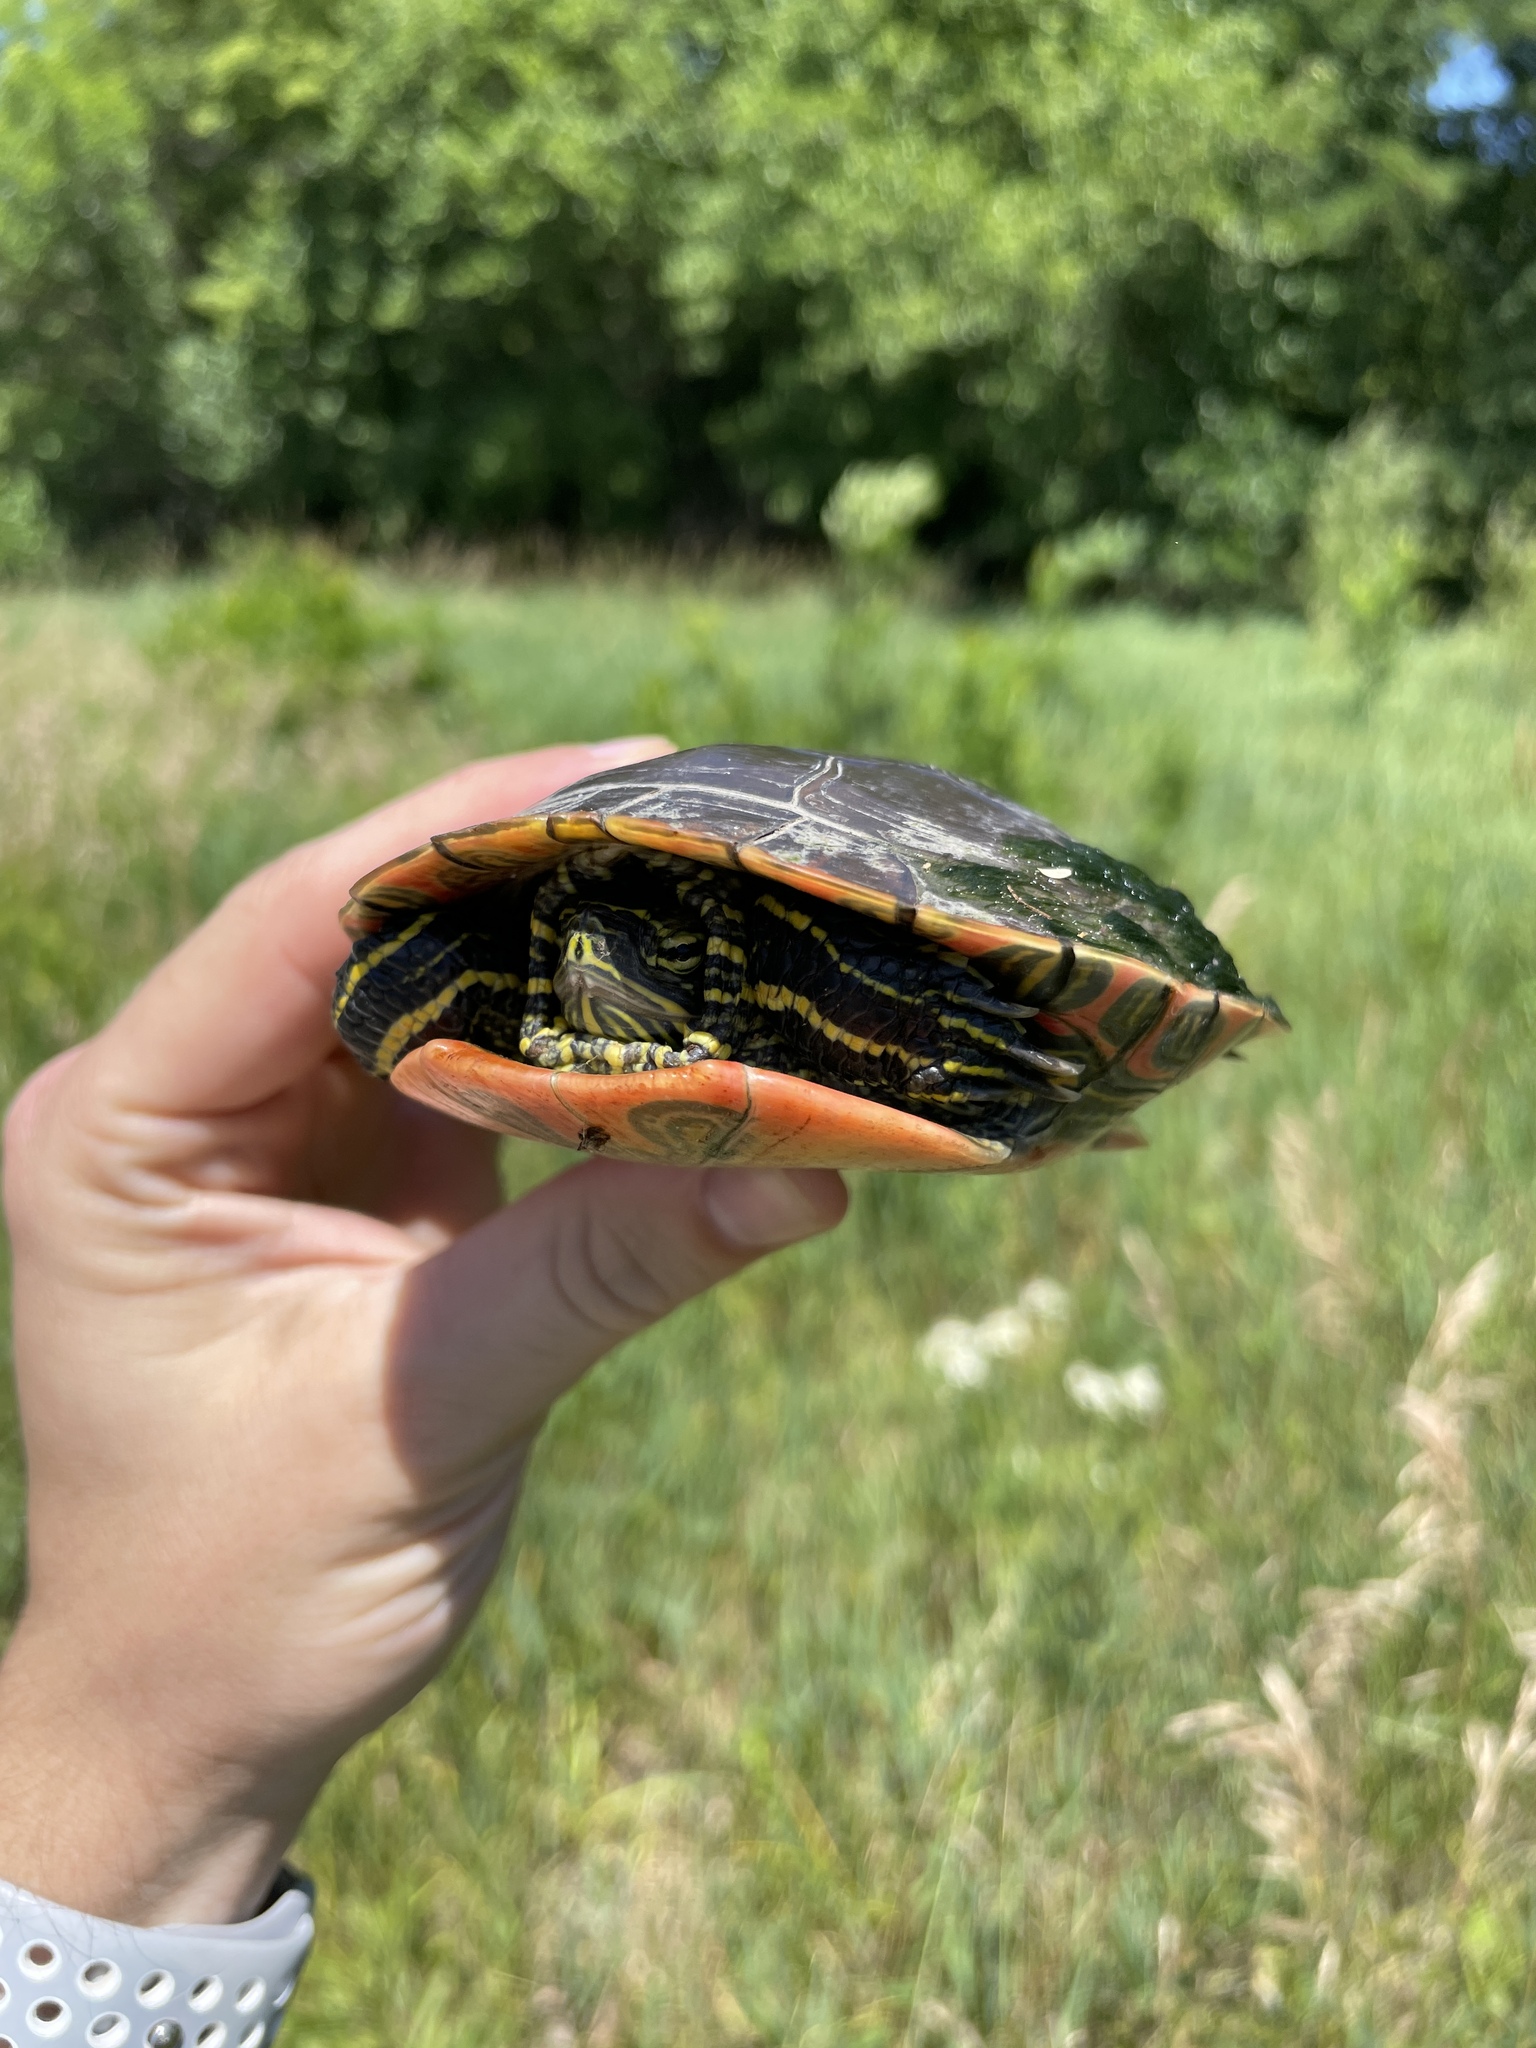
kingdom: Animalia
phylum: Chordata
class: Testudines
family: Emydidae
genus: Chrysemys
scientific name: Chrysemys picta
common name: Painted turtle
